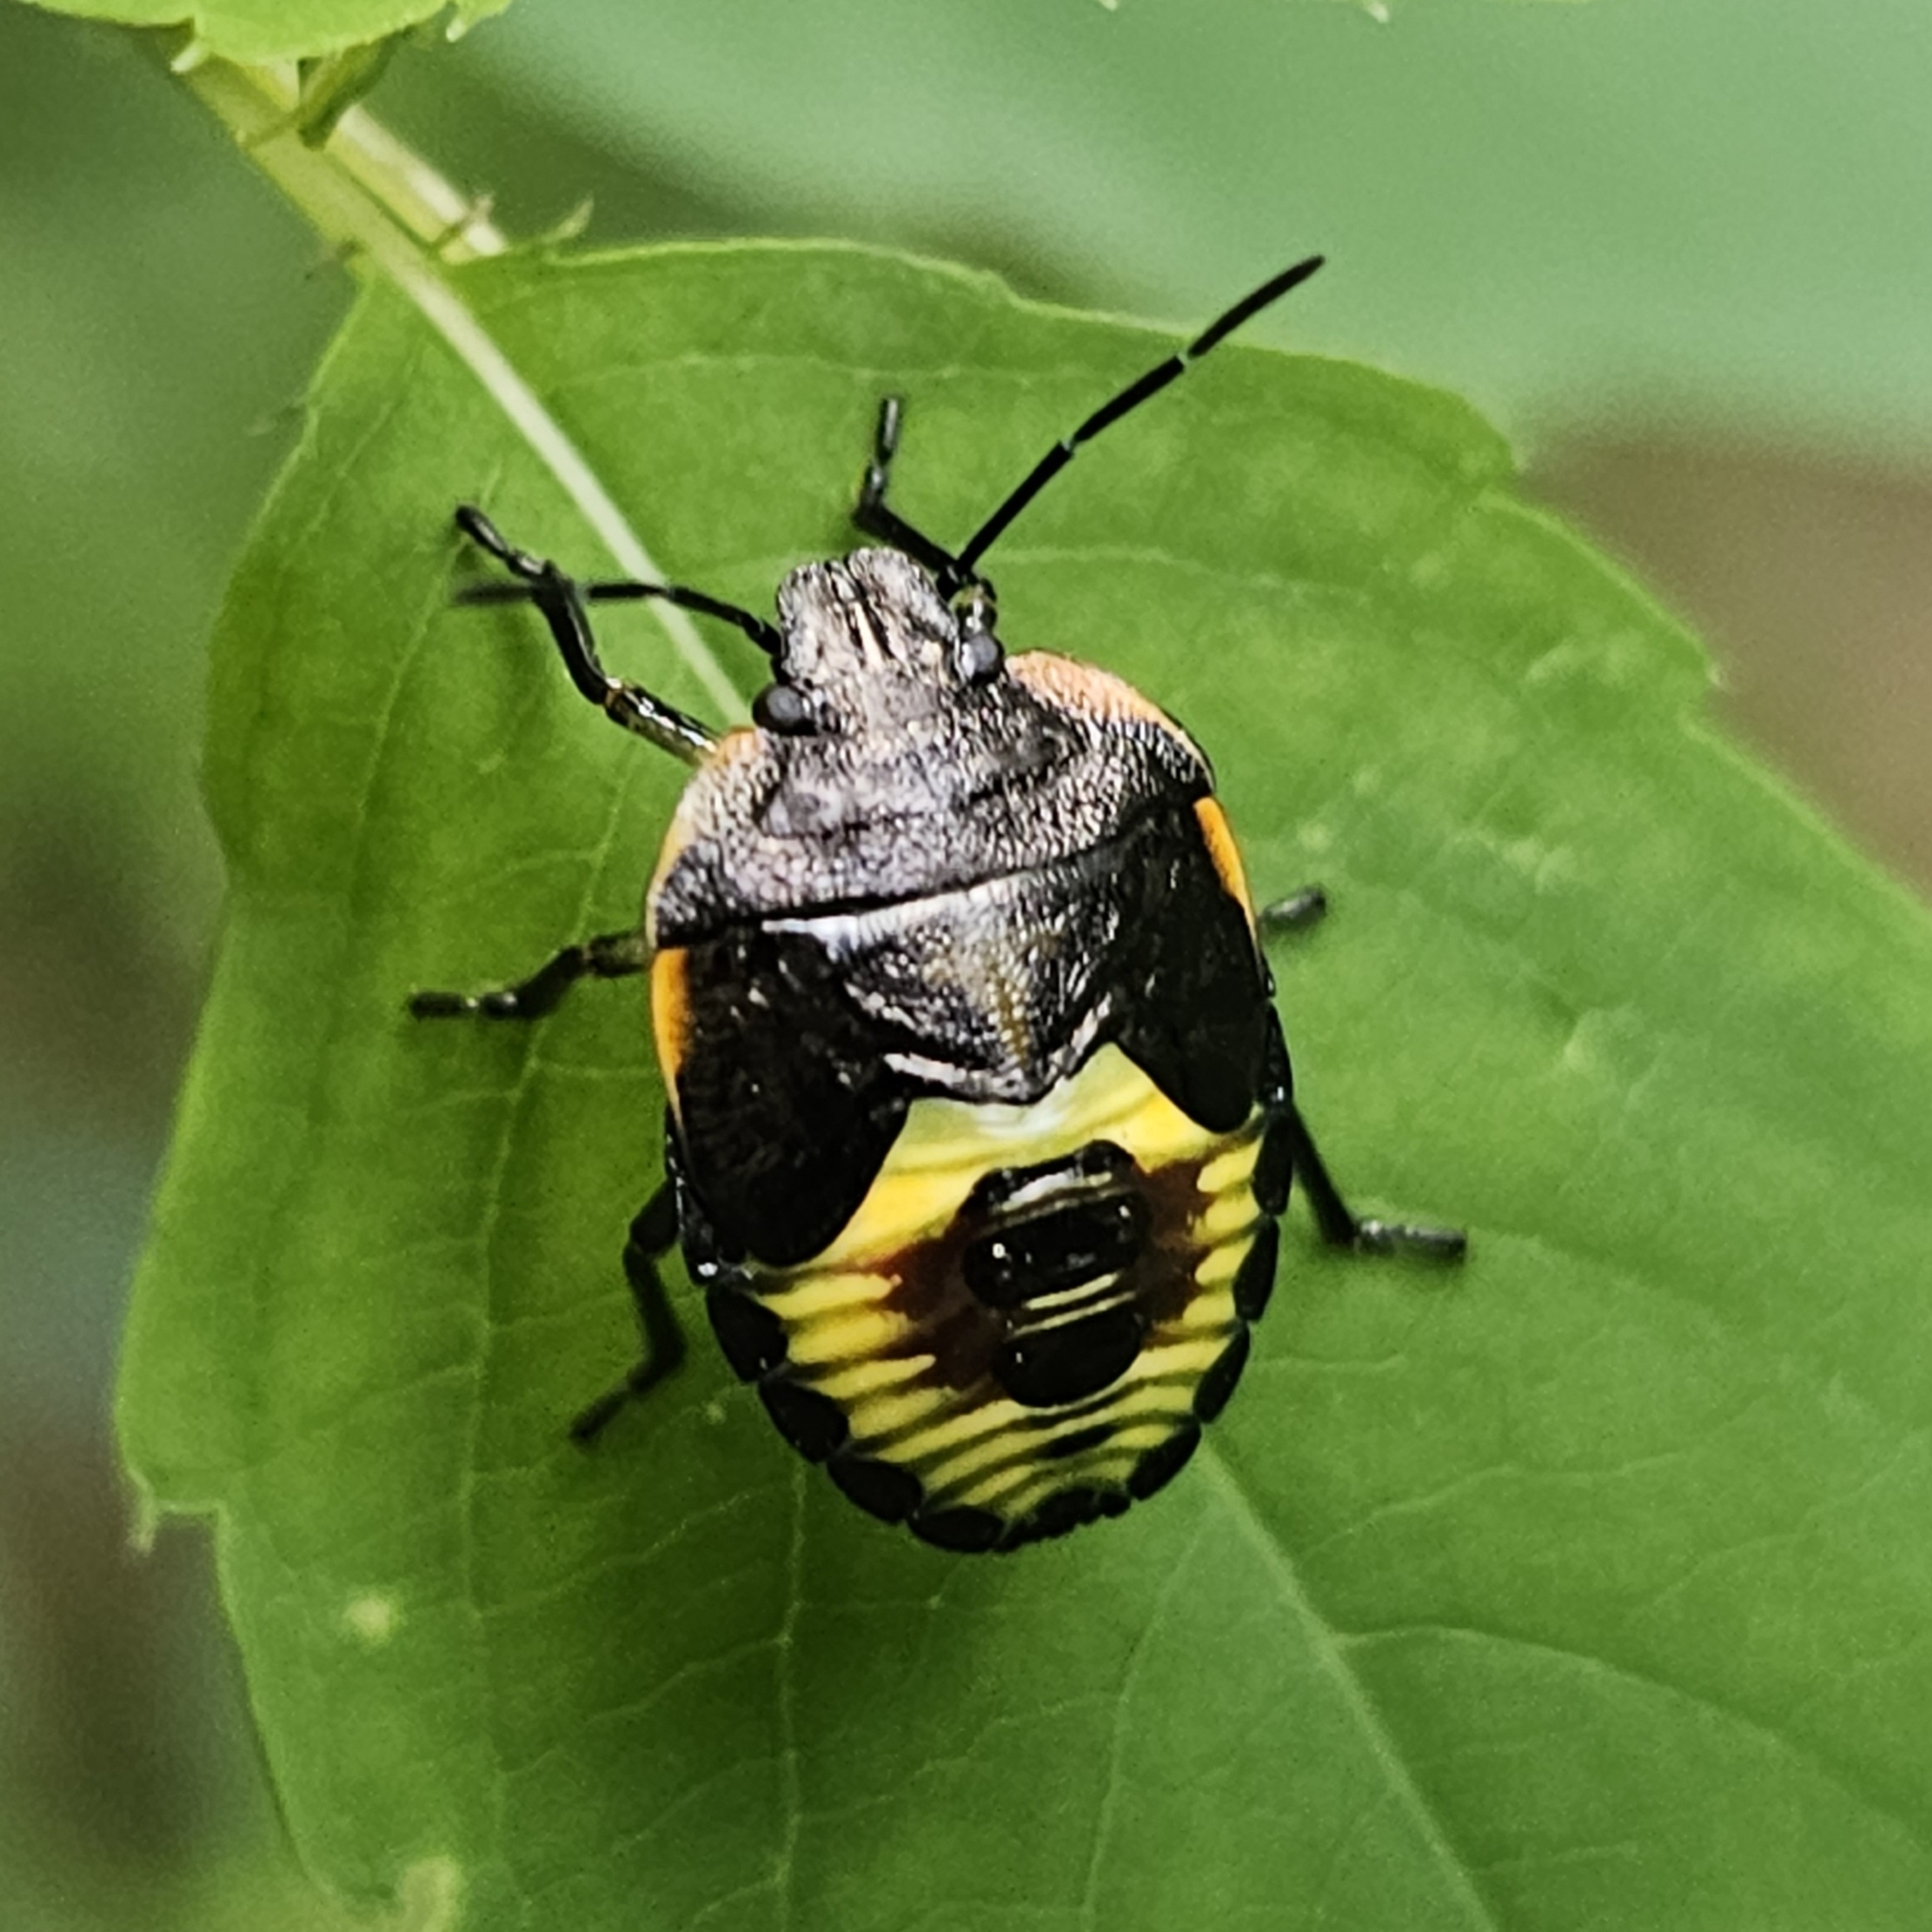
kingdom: Animalia
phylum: Arthropoda
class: Insecta
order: Hemiptera
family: Pentatomidae
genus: Chinavia
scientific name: Chinavia hilaris
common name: Green stink bug
